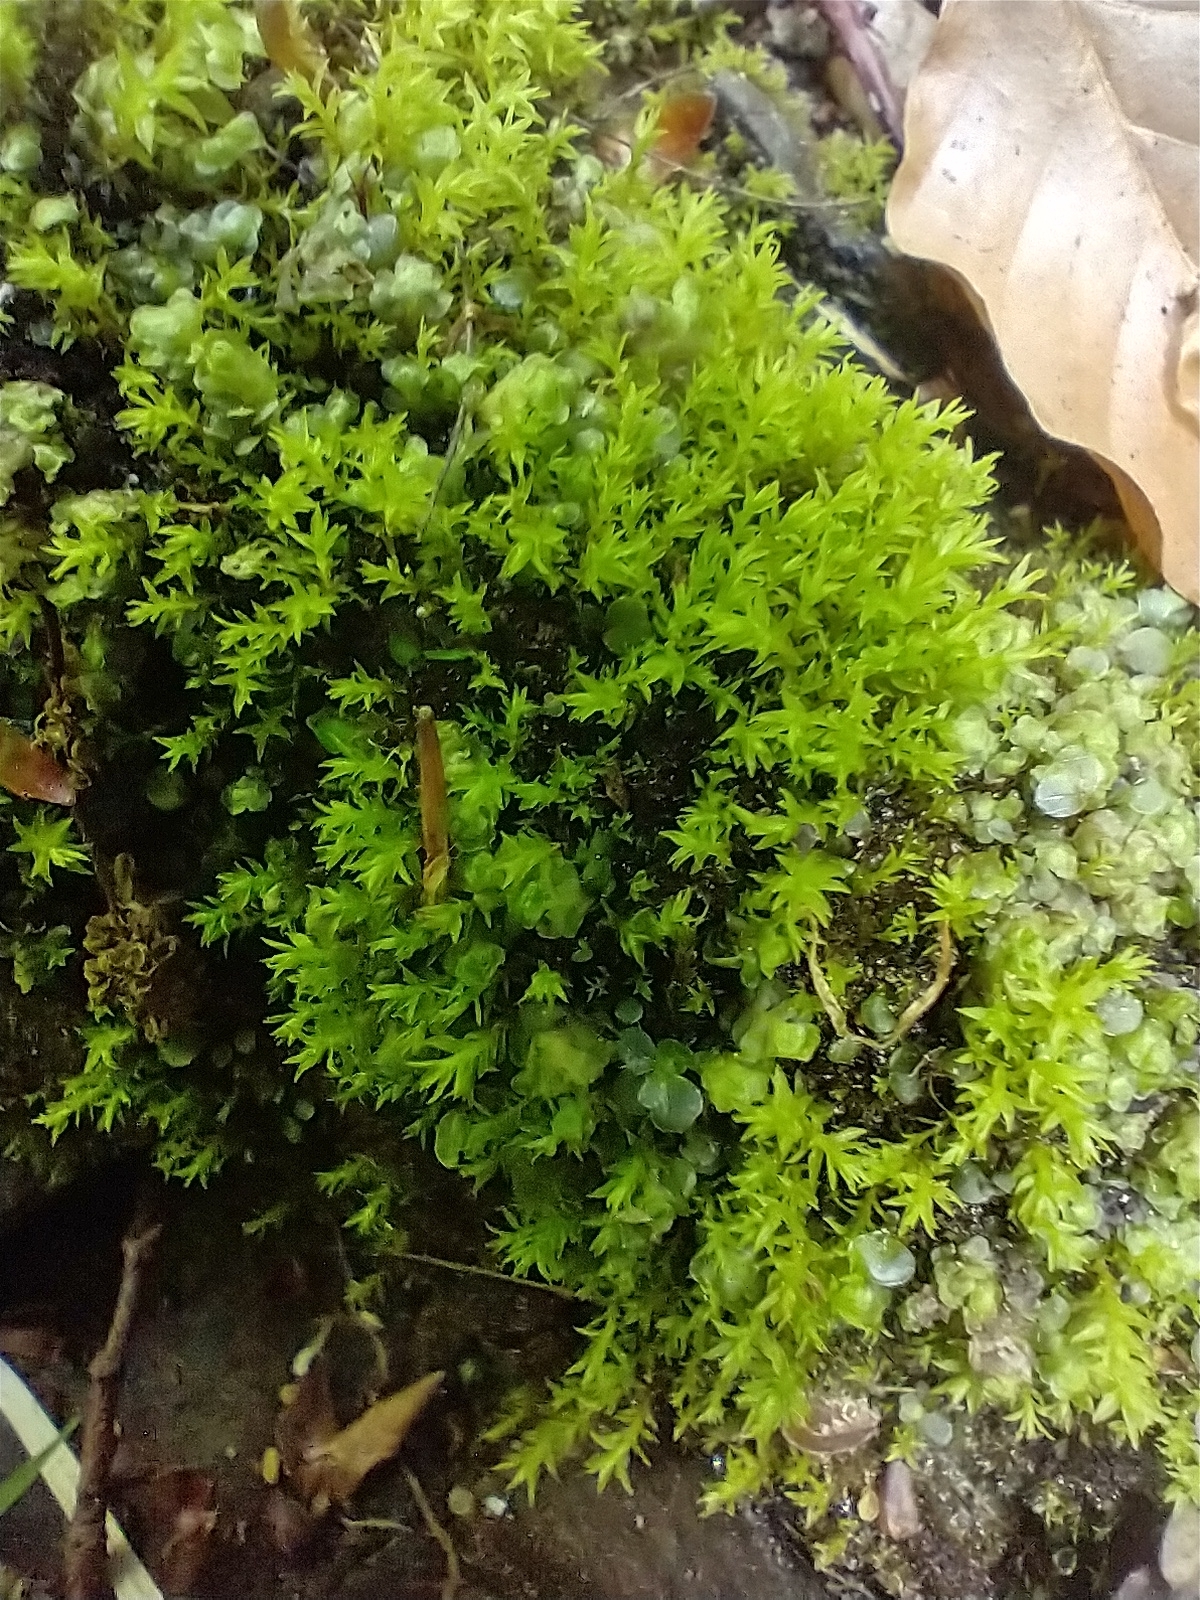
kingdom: Plantae
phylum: Bryophyta
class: Bryopsida
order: Dicranales
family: Aongstroemiaceae
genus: Dichodontium
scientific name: Dichodontium pellucidum
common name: Transparent fork moss
